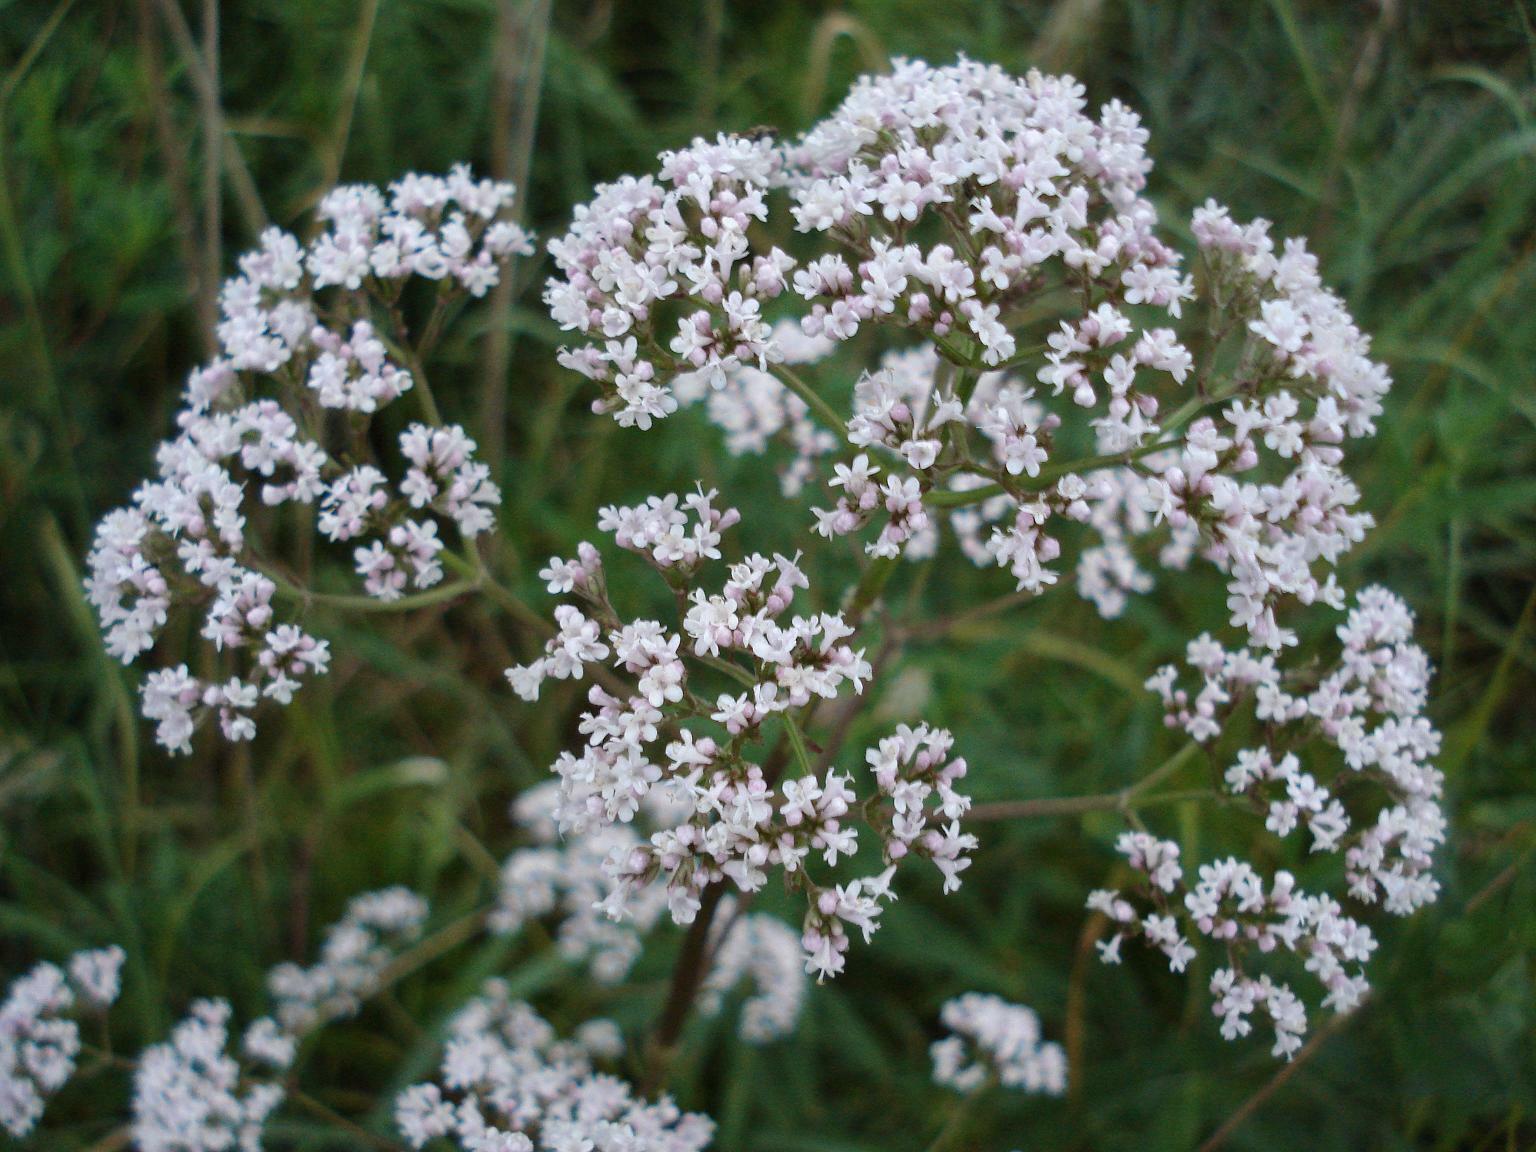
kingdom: Plantae
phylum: Tracheophyta
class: Magnoliopsida
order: Dipsacales
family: Caprifoliaceae
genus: Valeriana
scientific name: Valeriana officinalis
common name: Common valerian
